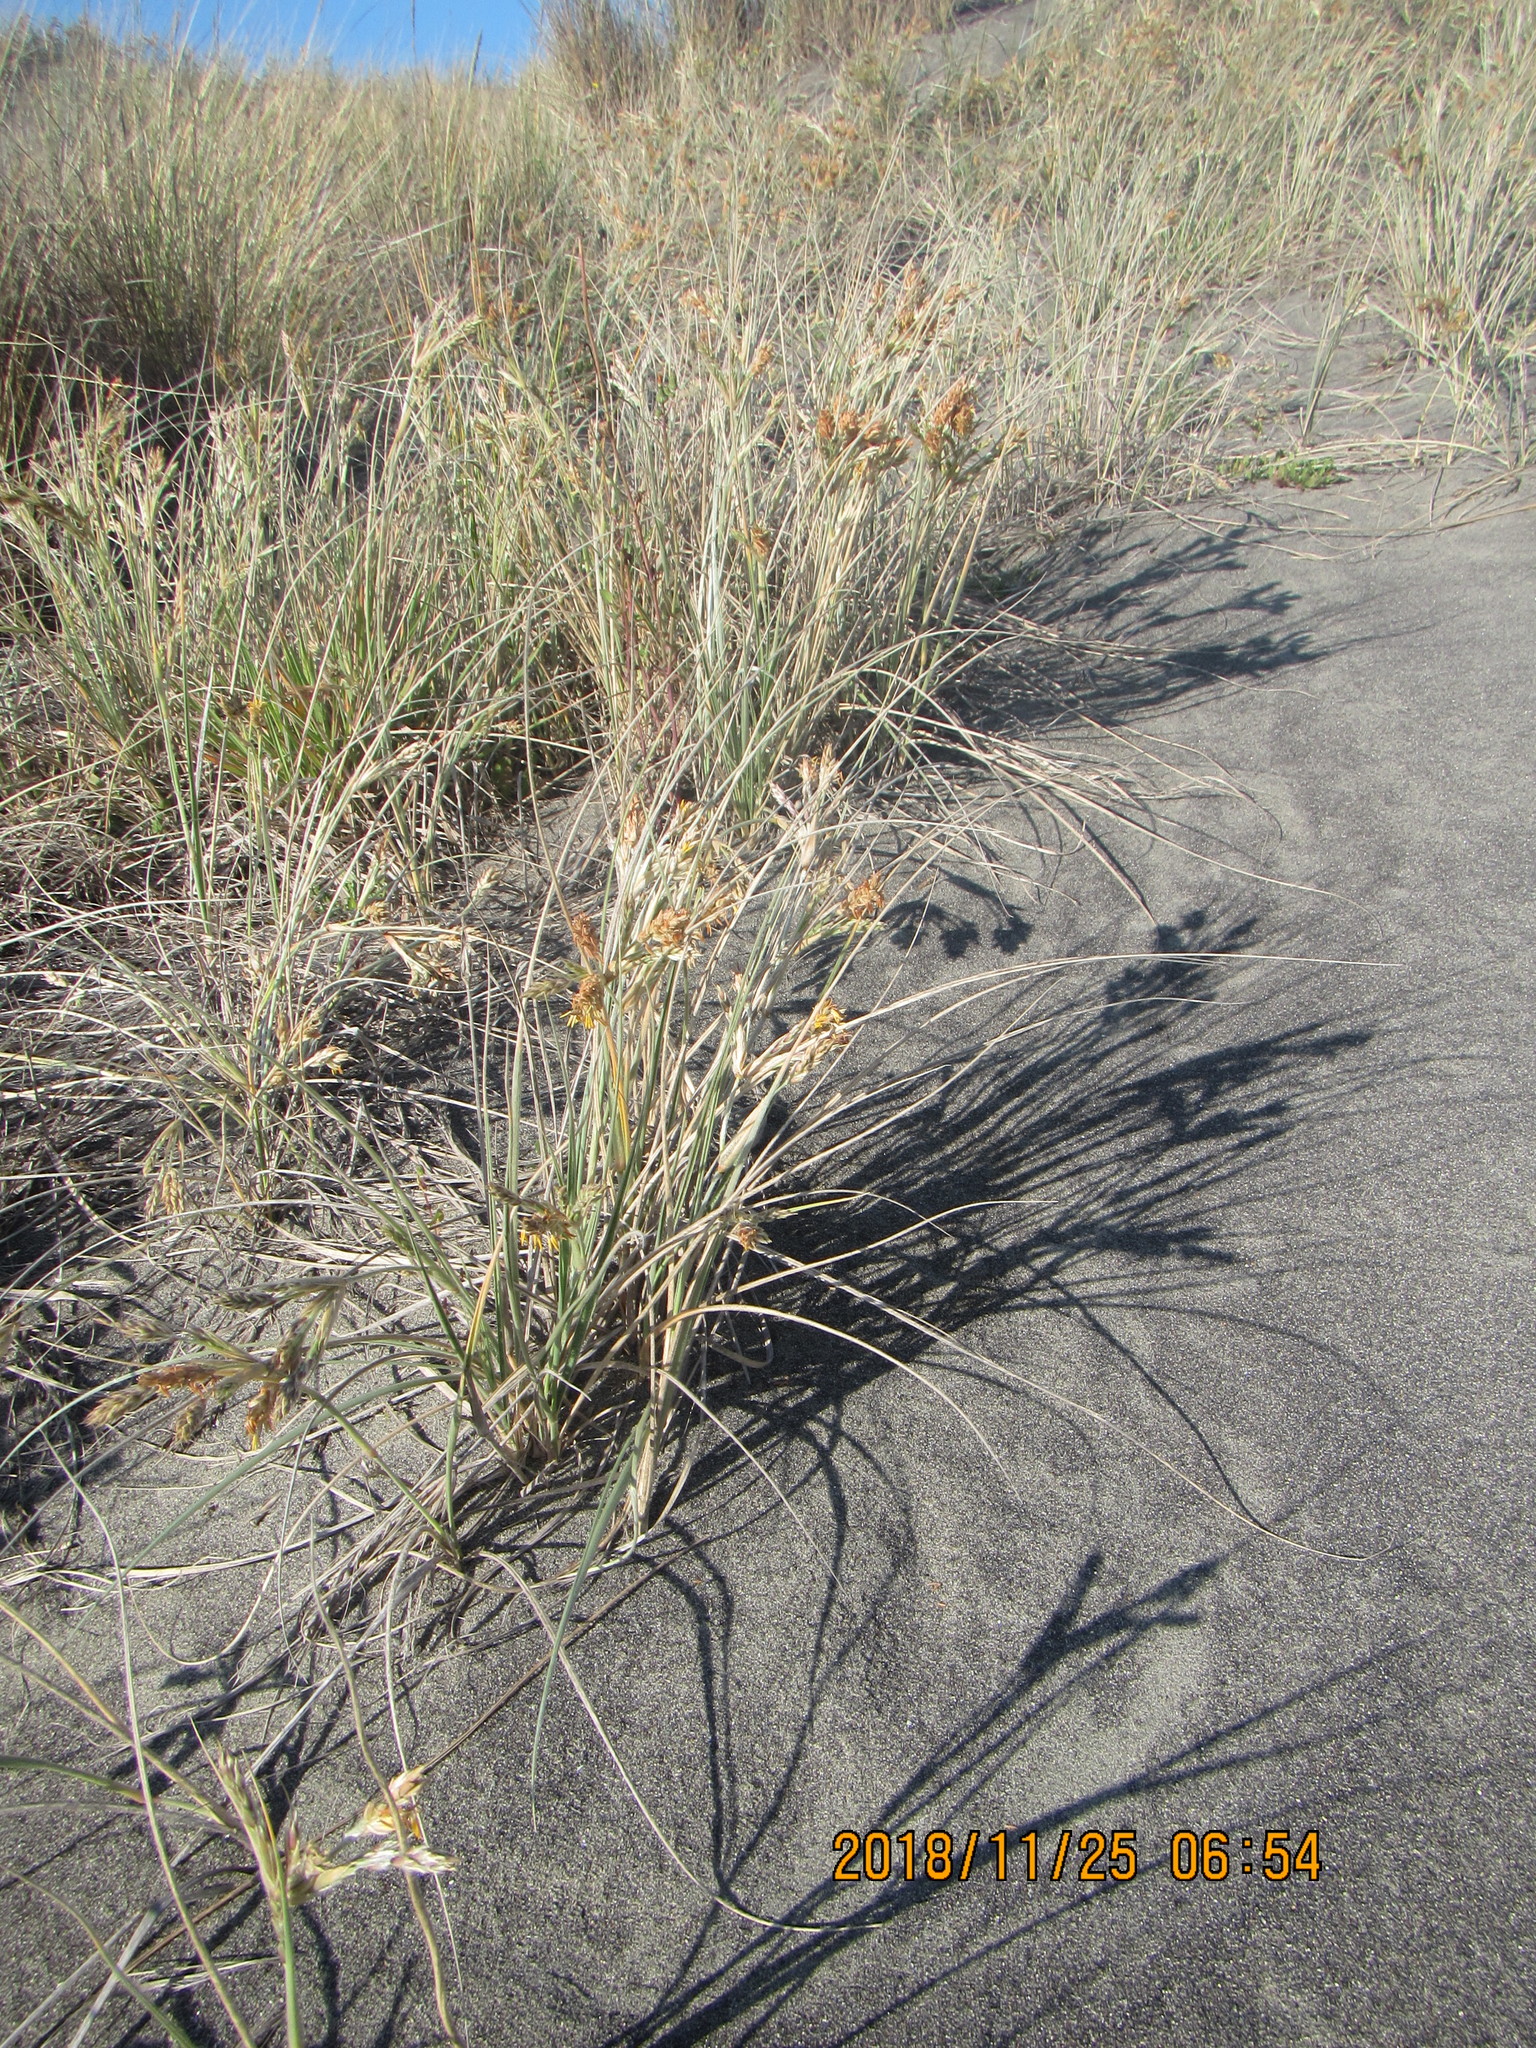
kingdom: Plantae
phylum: Tracheophyta
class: Liliopsida
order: Poales
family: Poaceae
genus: Spinifex
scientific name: Spinifex sericeus
